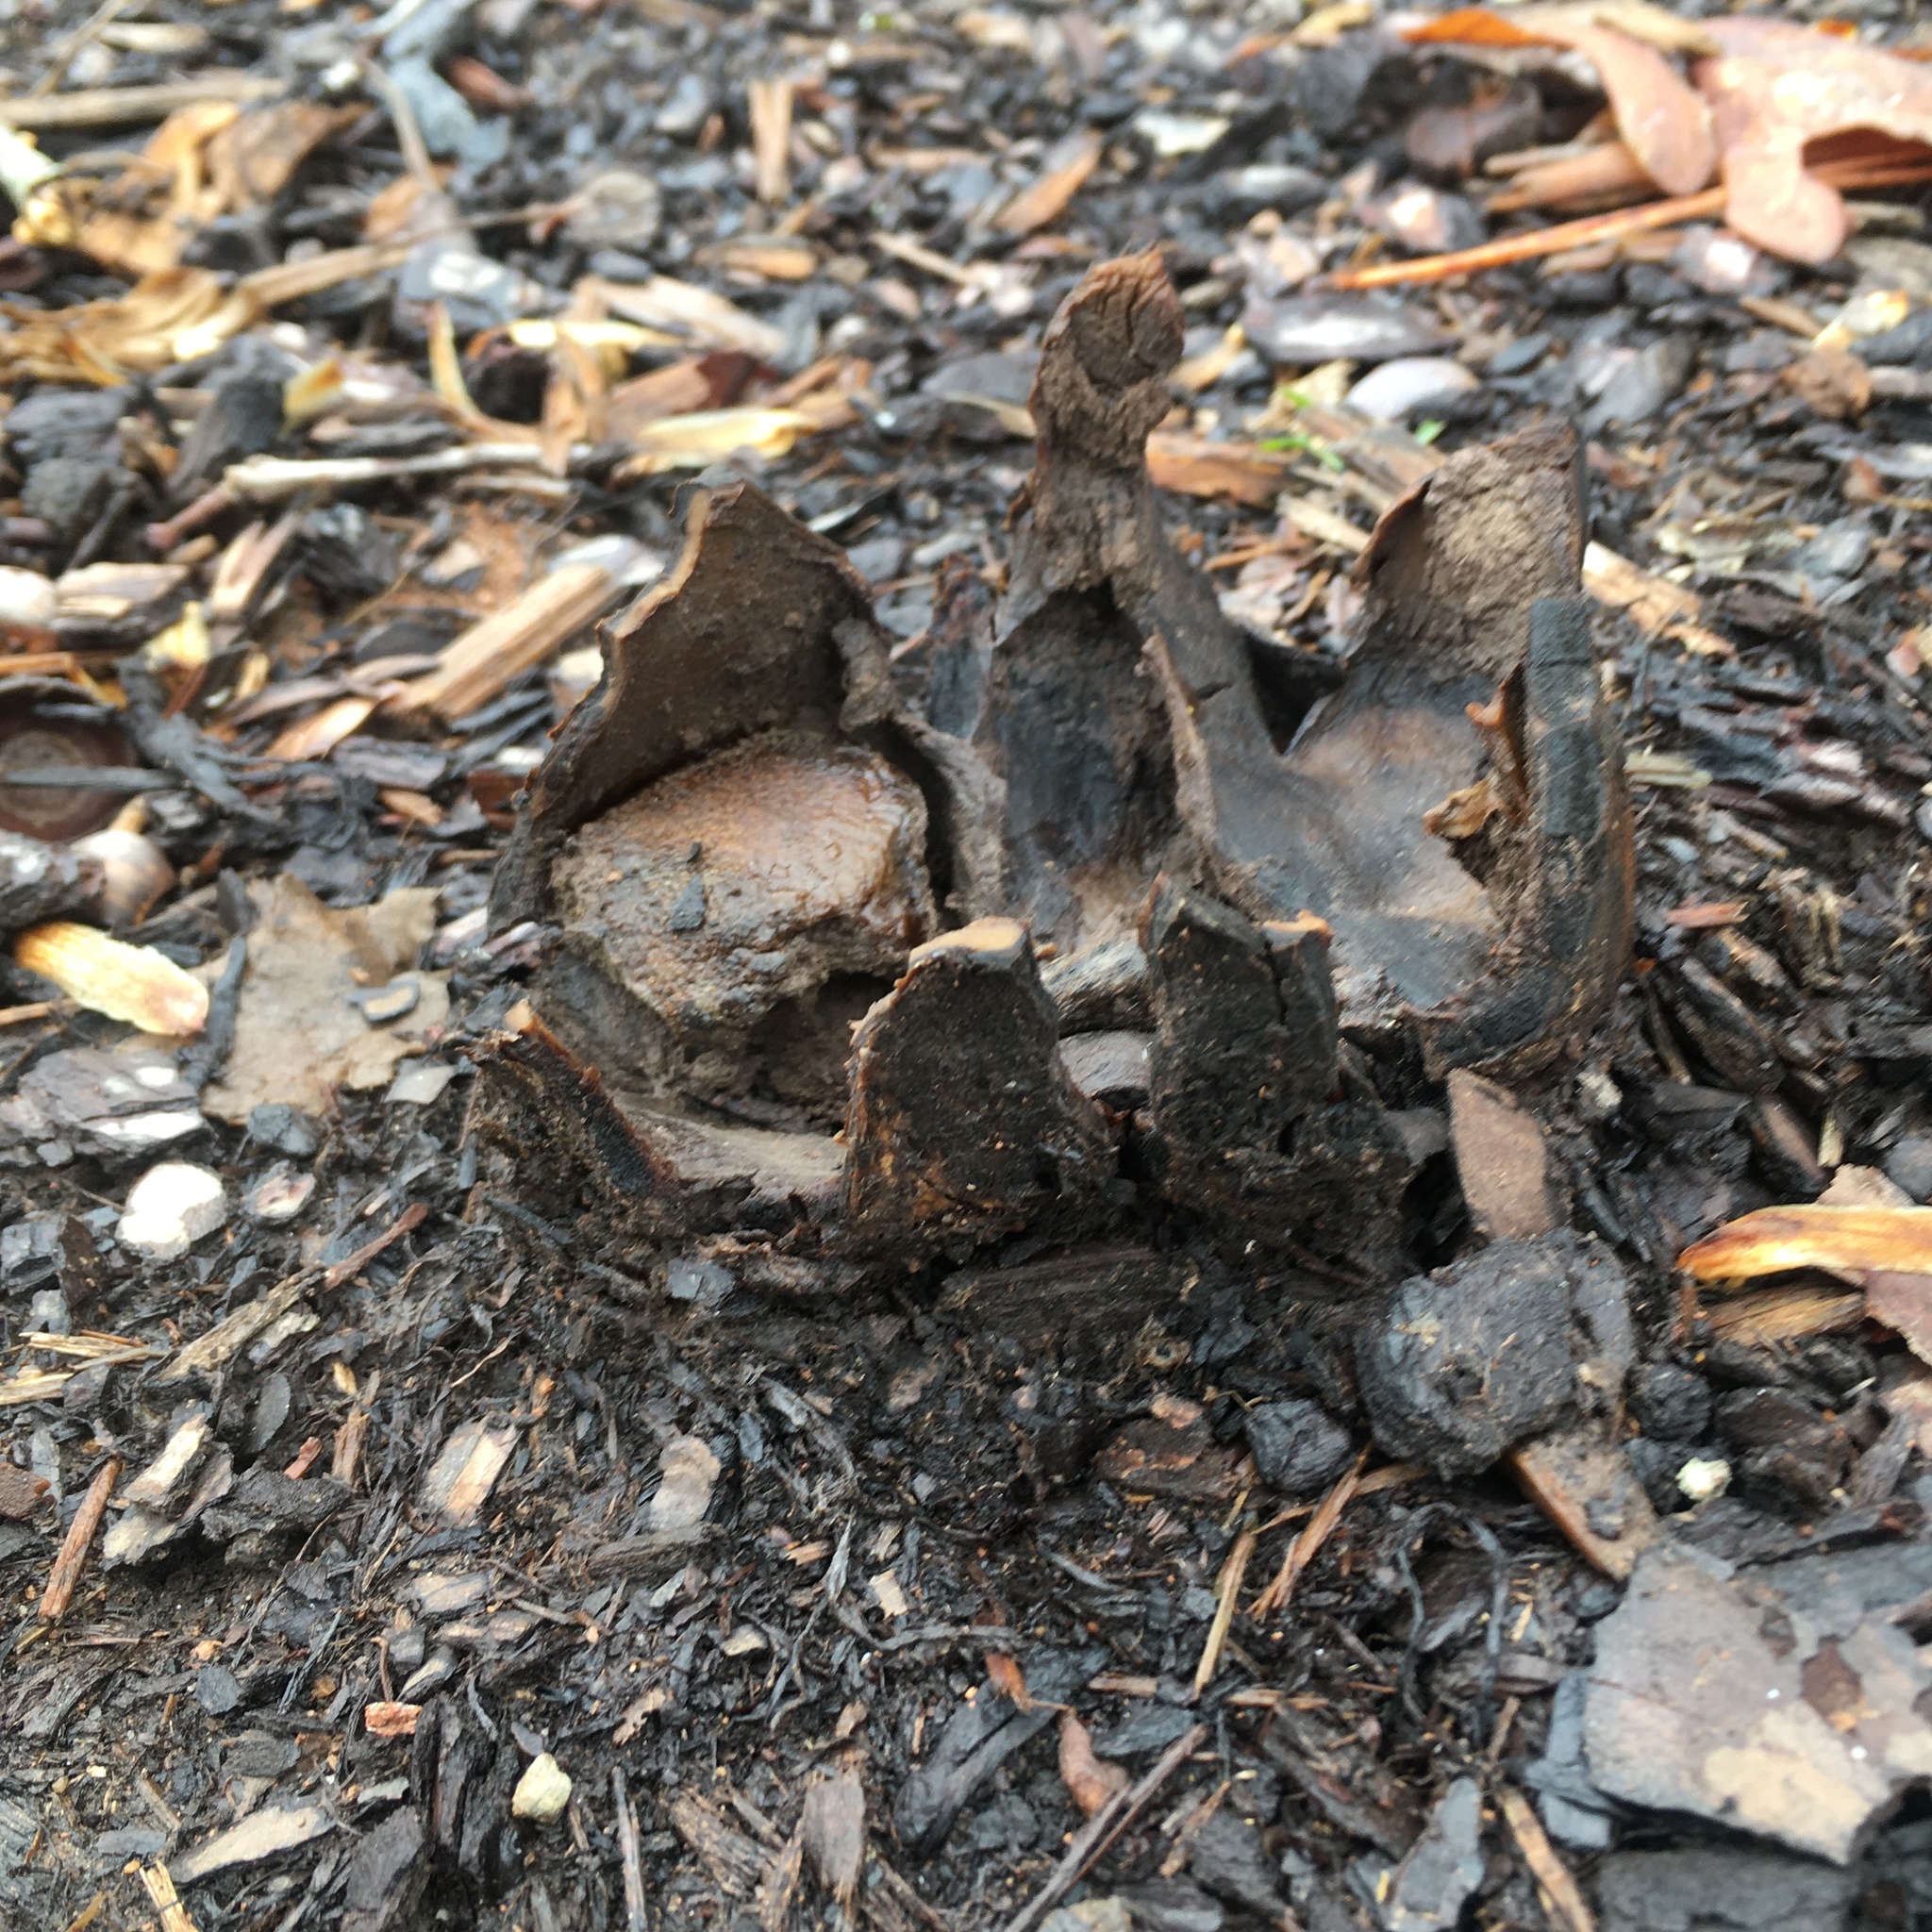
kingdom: Fungi
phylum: Basidiomycota
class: Agaricomycetes
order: Boletales
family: Sclerodermataceae
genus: Scleroderma
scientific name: Scleroderma polyrhizum
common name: Many-rooted earthball
